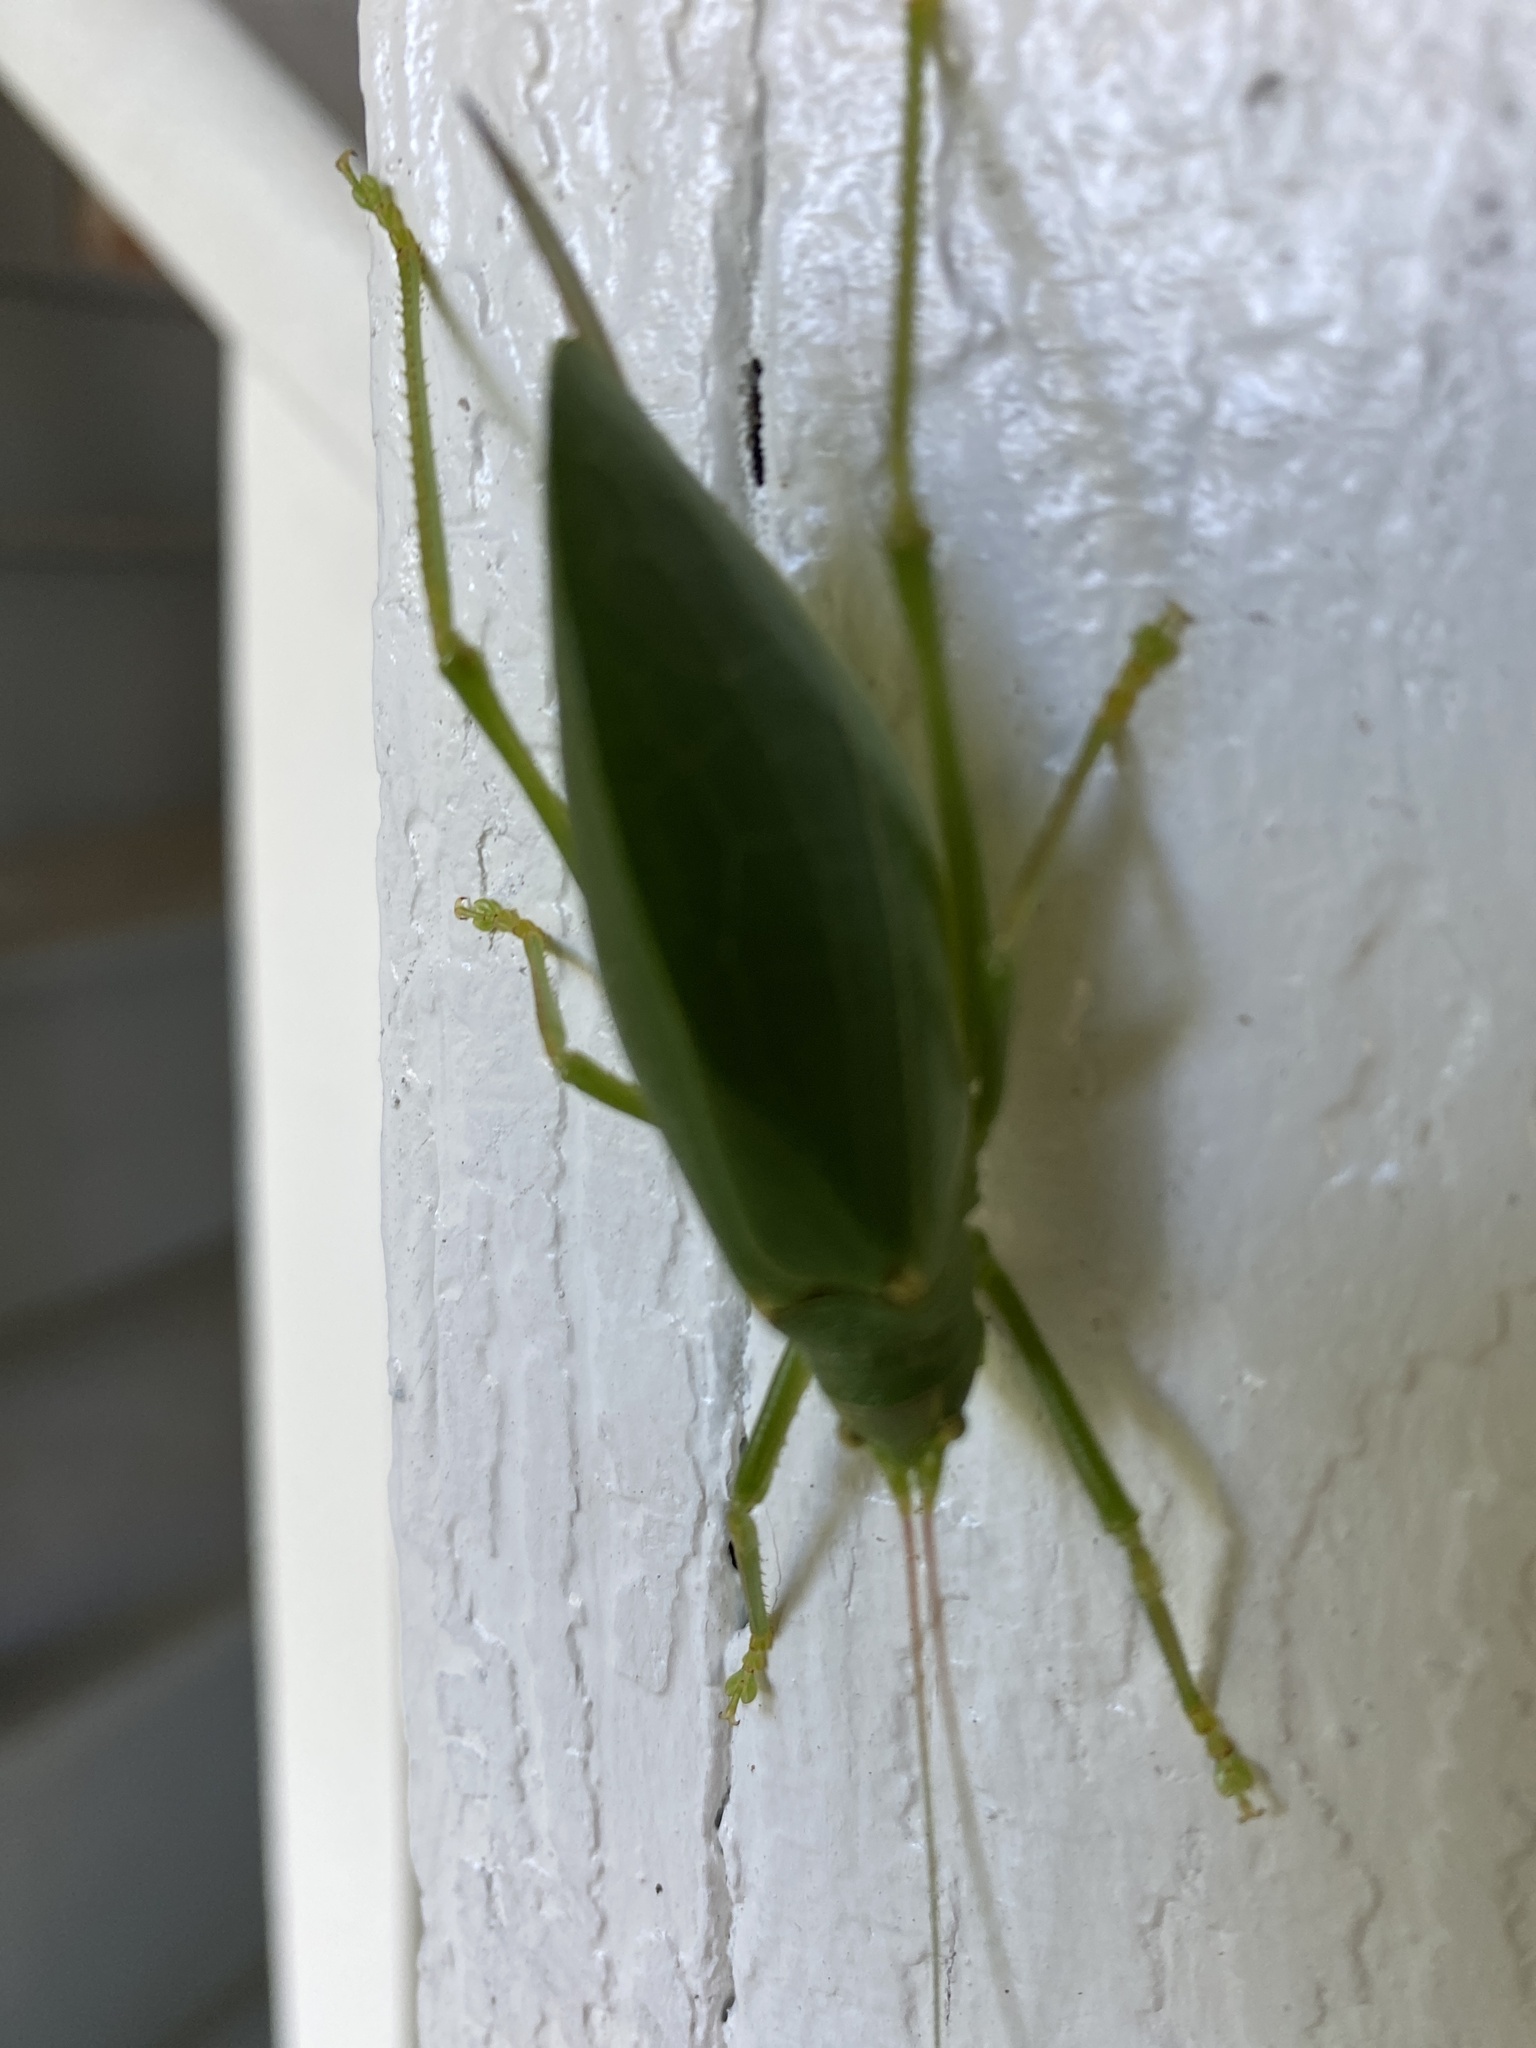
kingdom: Animalia
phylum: Arthropoda
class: Insecta
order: Orthoptera
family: Tettigoniidae
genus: Pterophylla
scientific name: Pterophylla camellifolia
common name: Common true katydid
